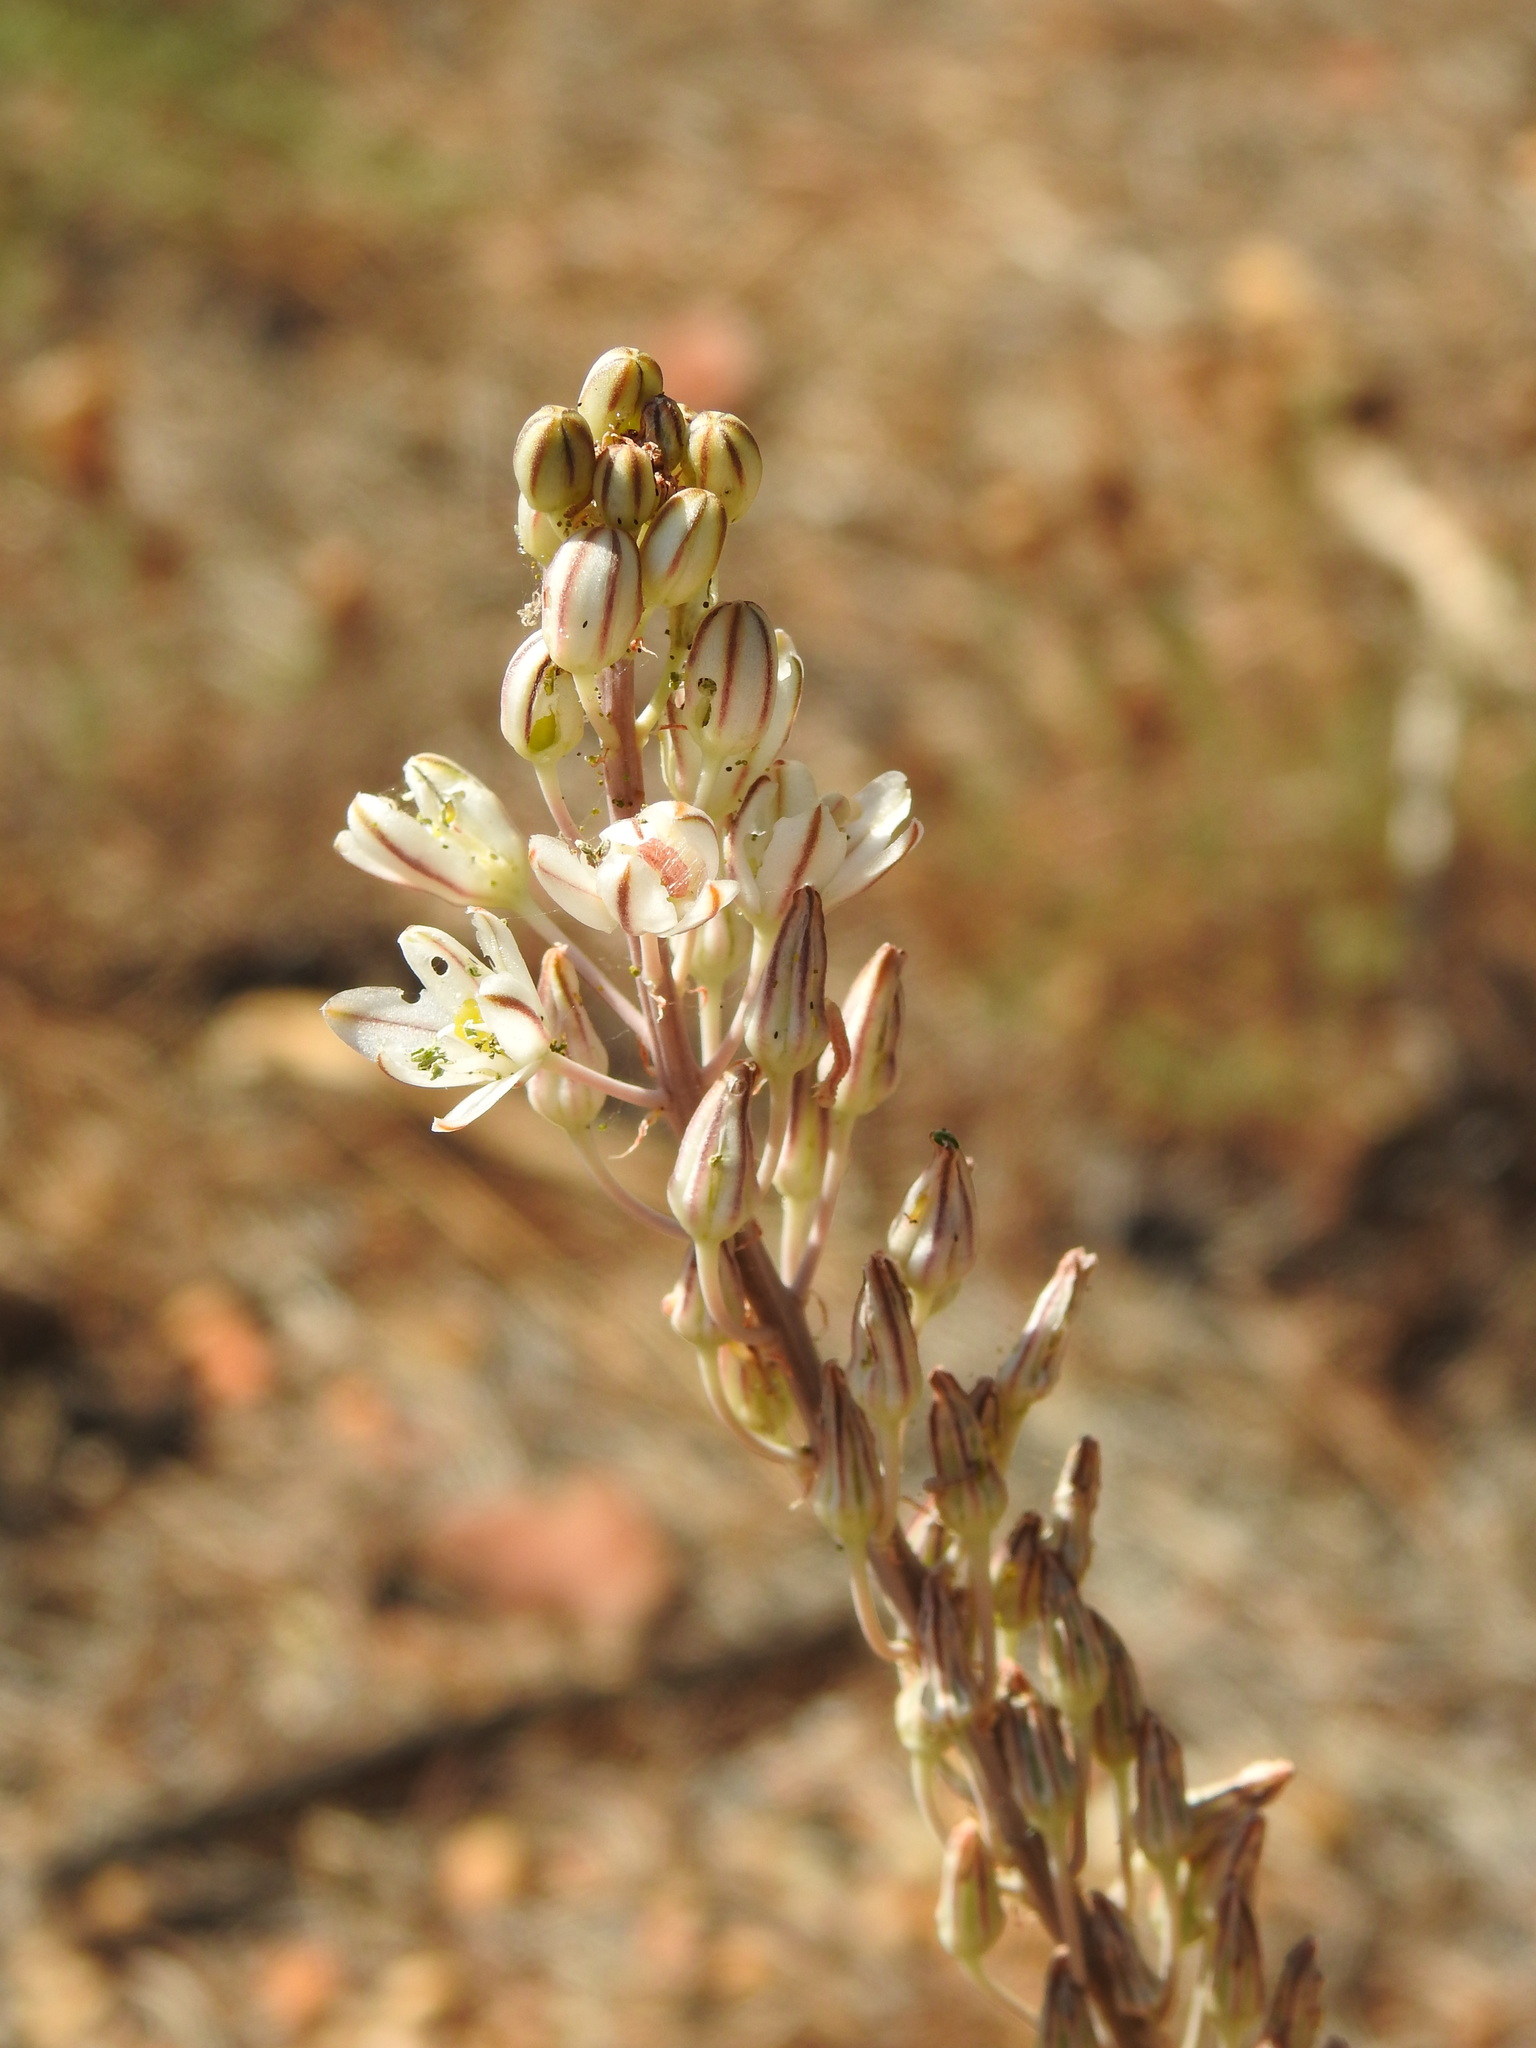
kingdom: Plantae
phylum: Tracheophyta
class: Liliopsida
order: Asparagales
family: Asparagaceae
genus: Drimia
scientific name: Drimia maritima
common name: Maritime squill
